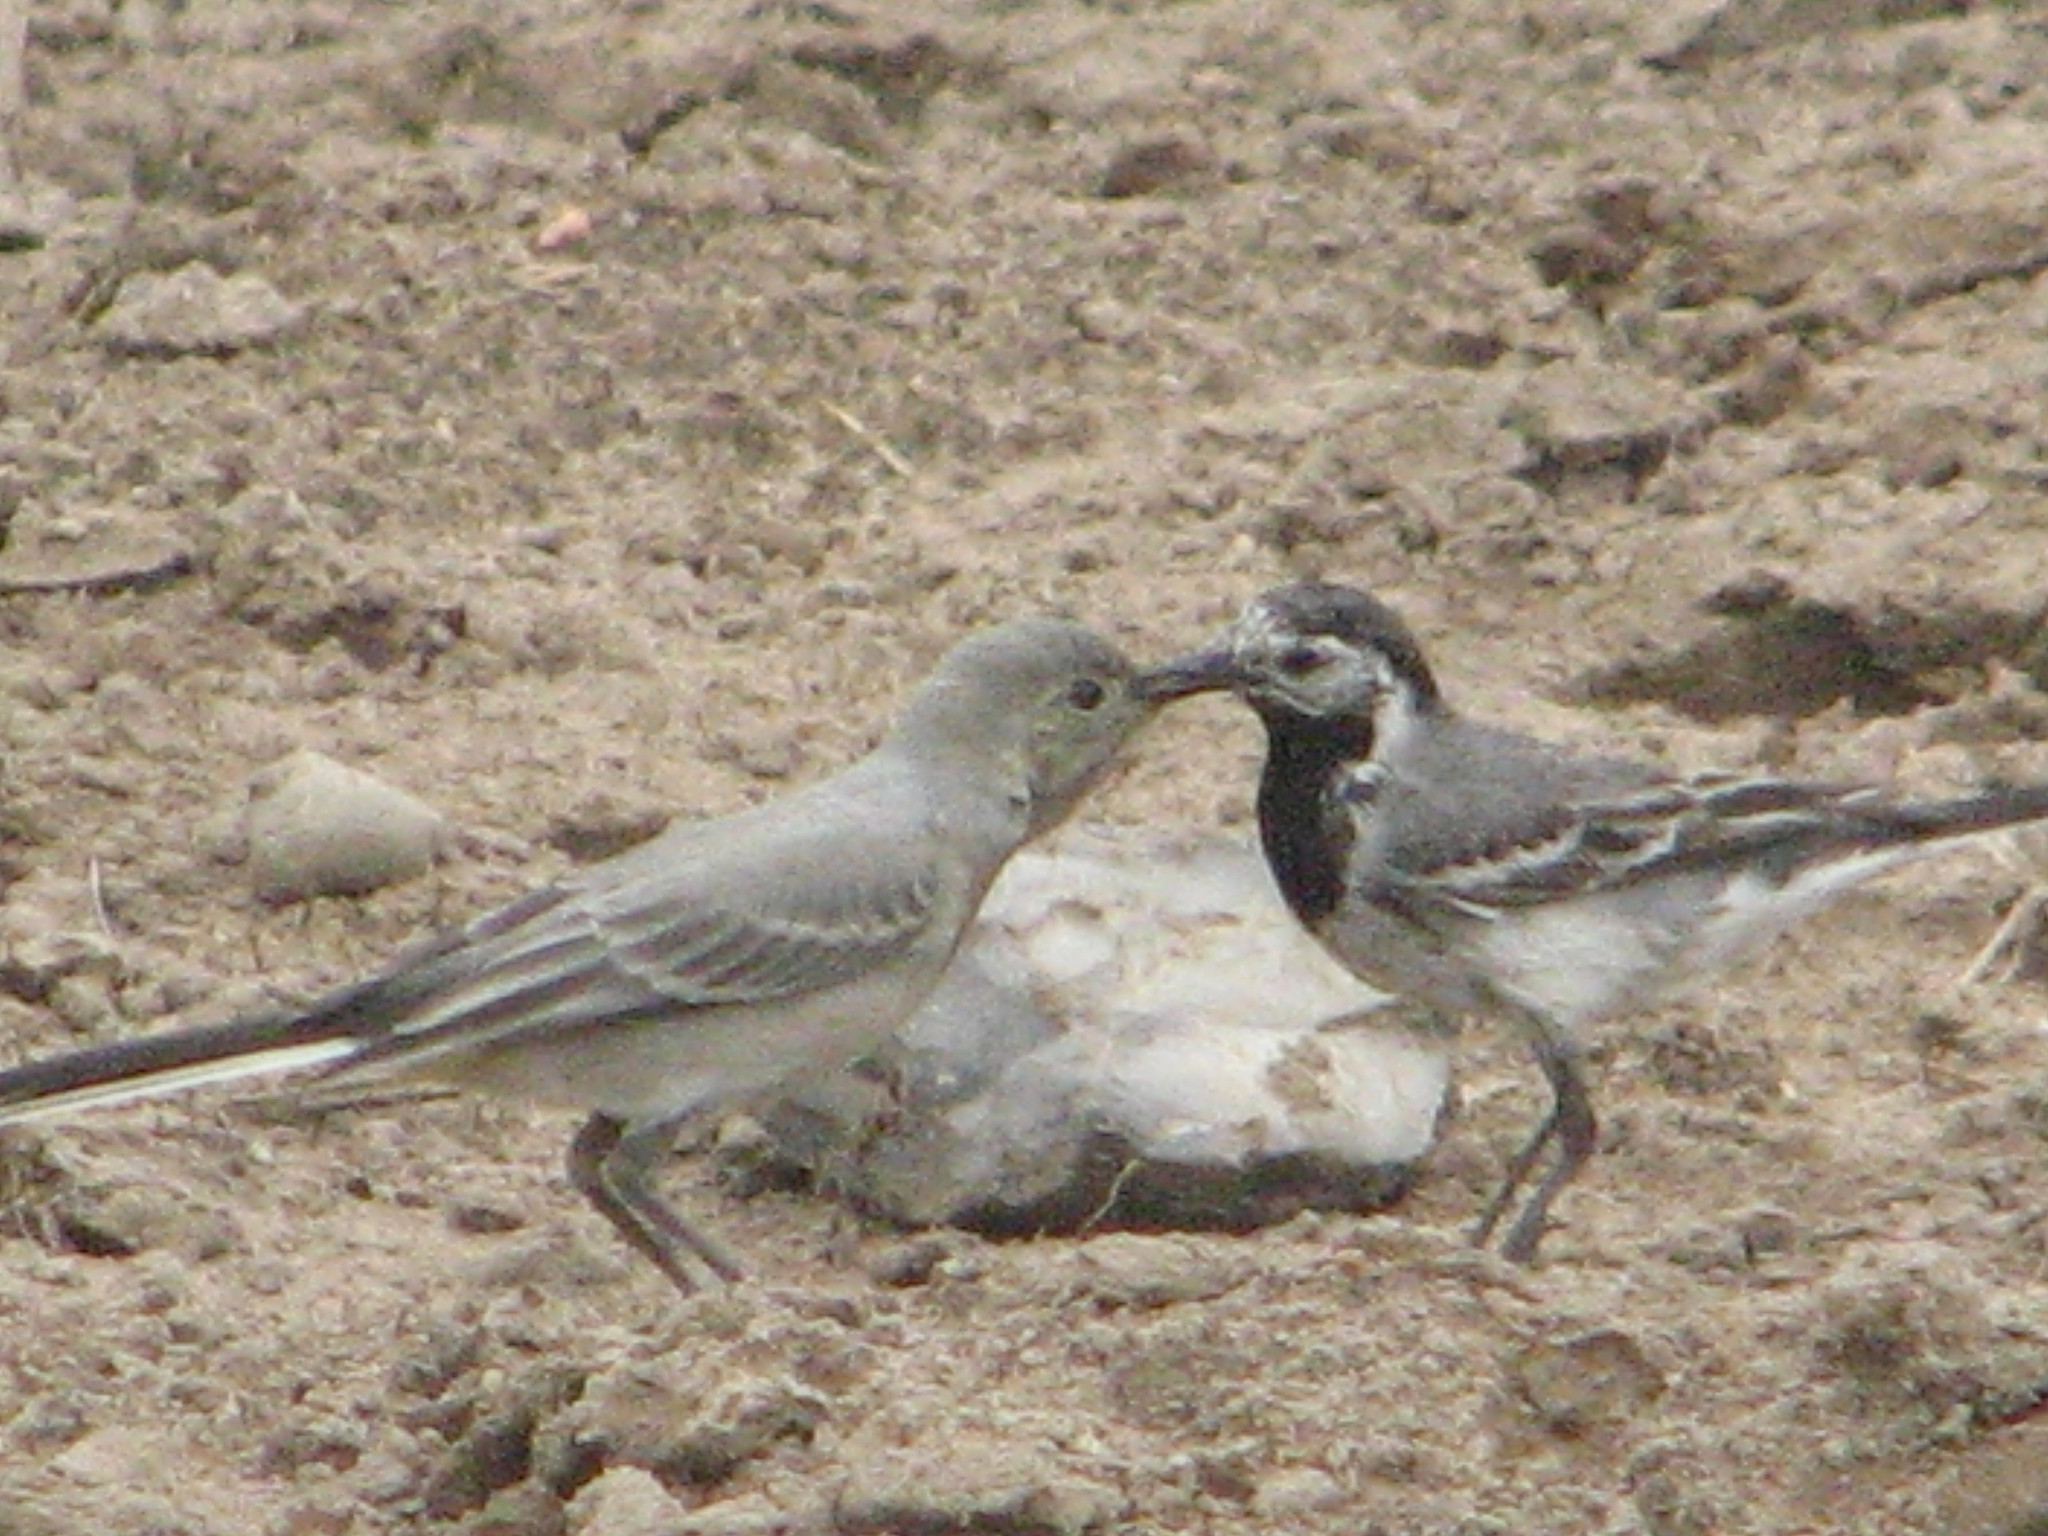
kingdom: Animalia
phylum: Chordata
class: Aves
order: Passeriformes
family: Motacillidae
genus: Motacilla
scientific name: Motacilla alba
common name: White wagtail
